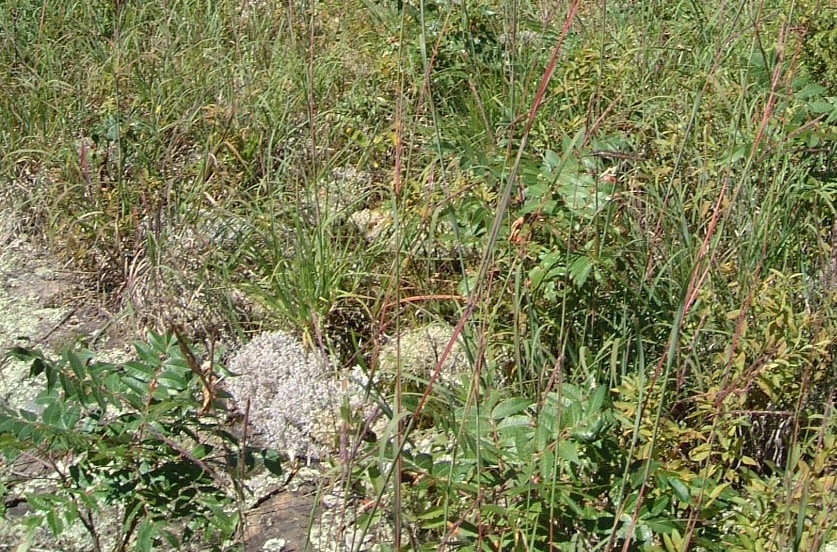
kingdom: Plantae
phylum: Tracheophyta
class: Magnoliopsida
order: Sapindales
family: Anacardiaceae
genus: Rhus
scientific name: Rhus glabra
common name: Scarlet sumac
